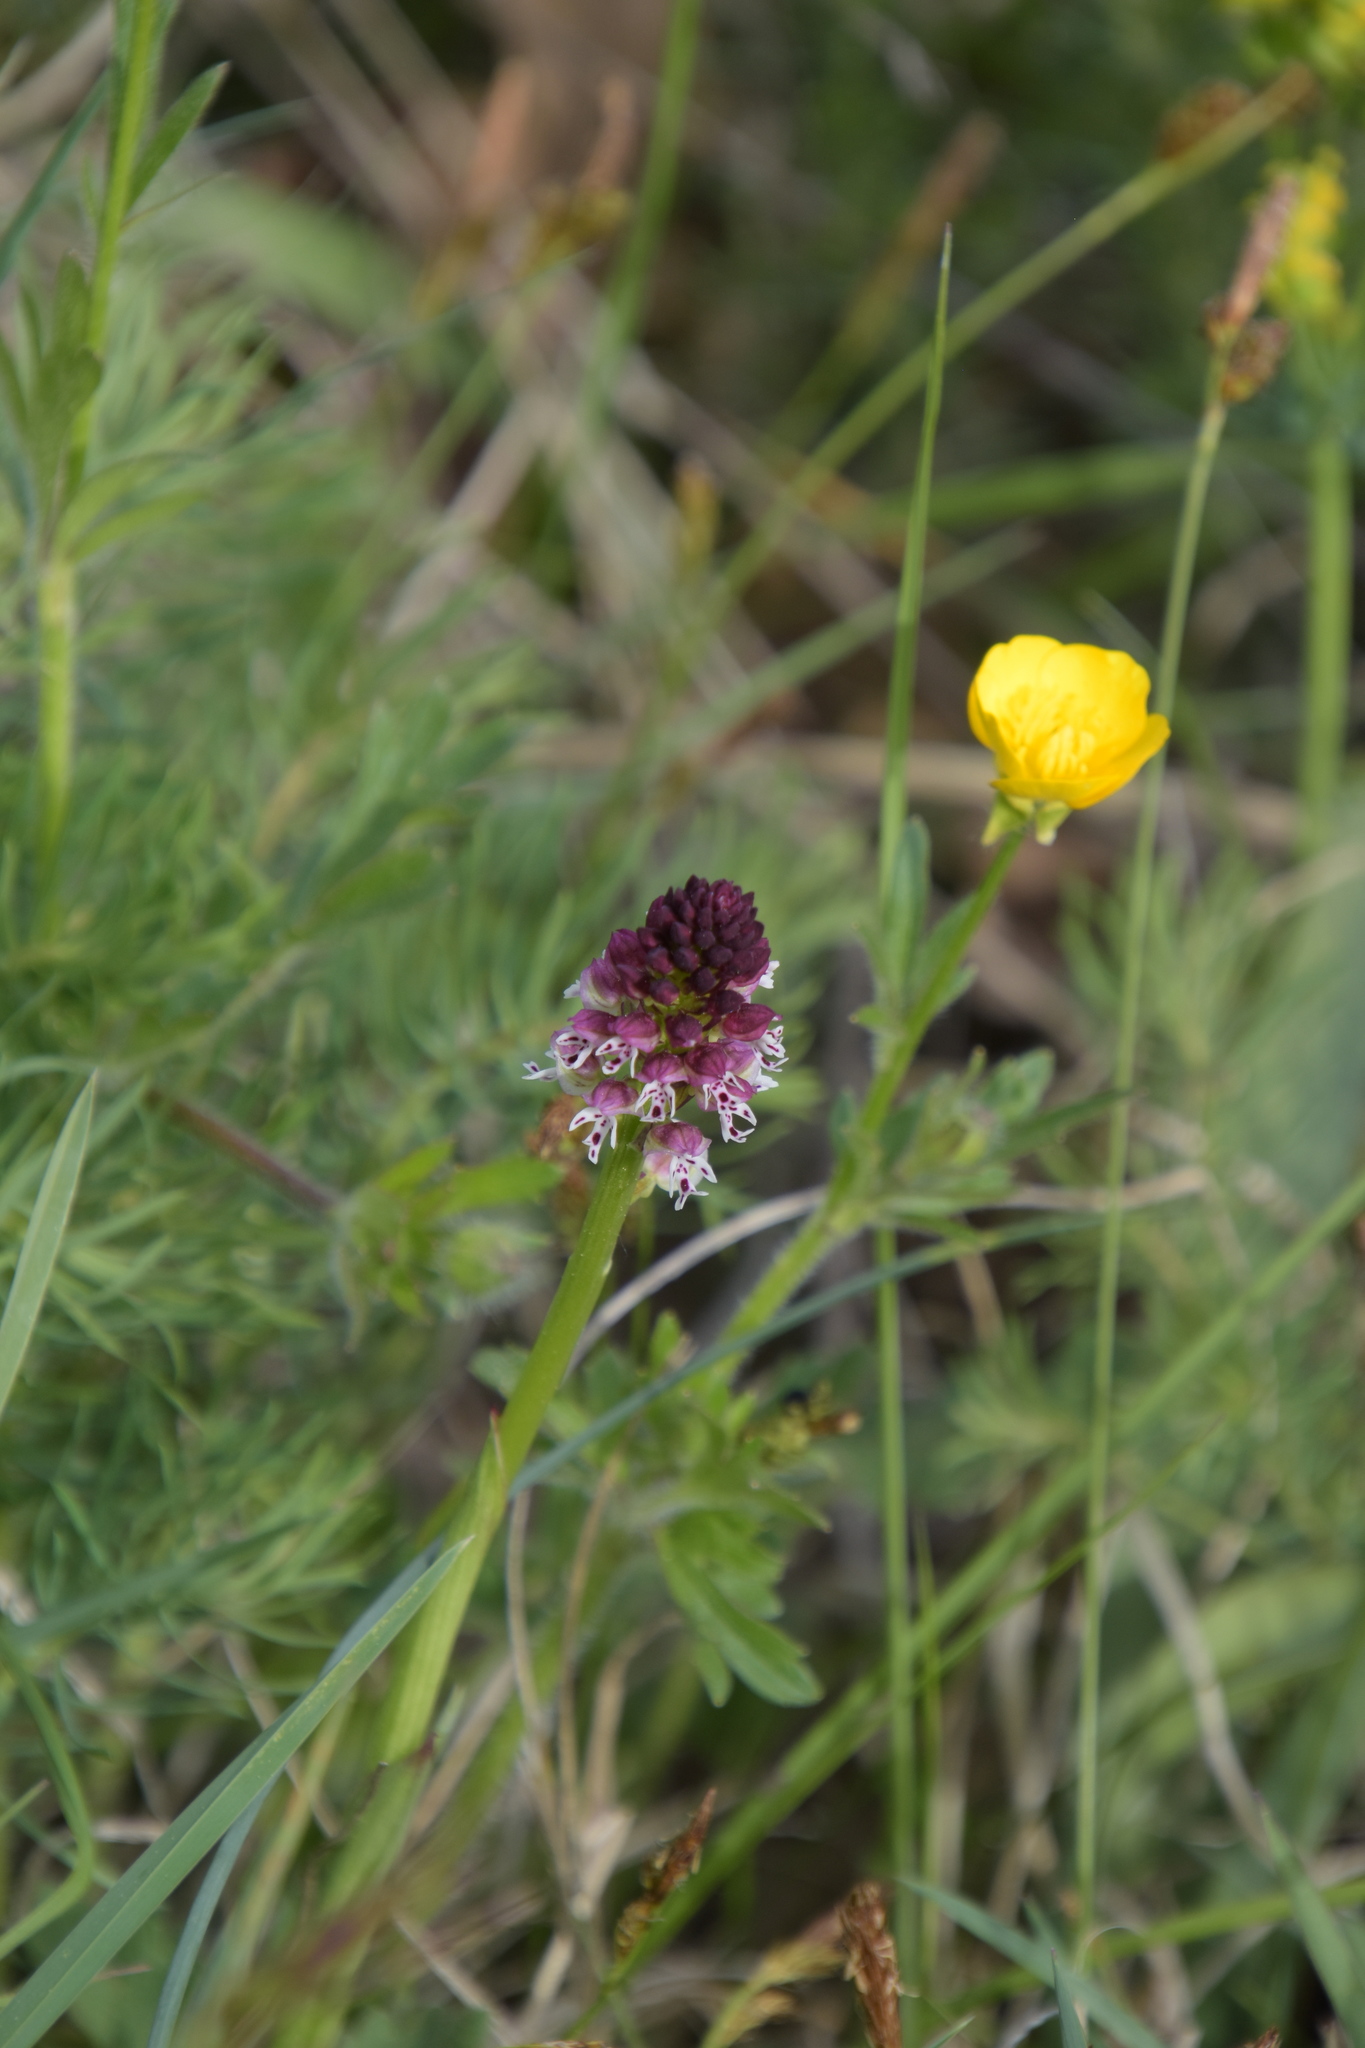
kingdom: Plantae
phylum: Tracheophyta
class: Liliopsida
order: Asparagales
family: Orchidaceae
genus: Neotinea
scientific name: Neotinea ustulata
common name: Burnt orchid
